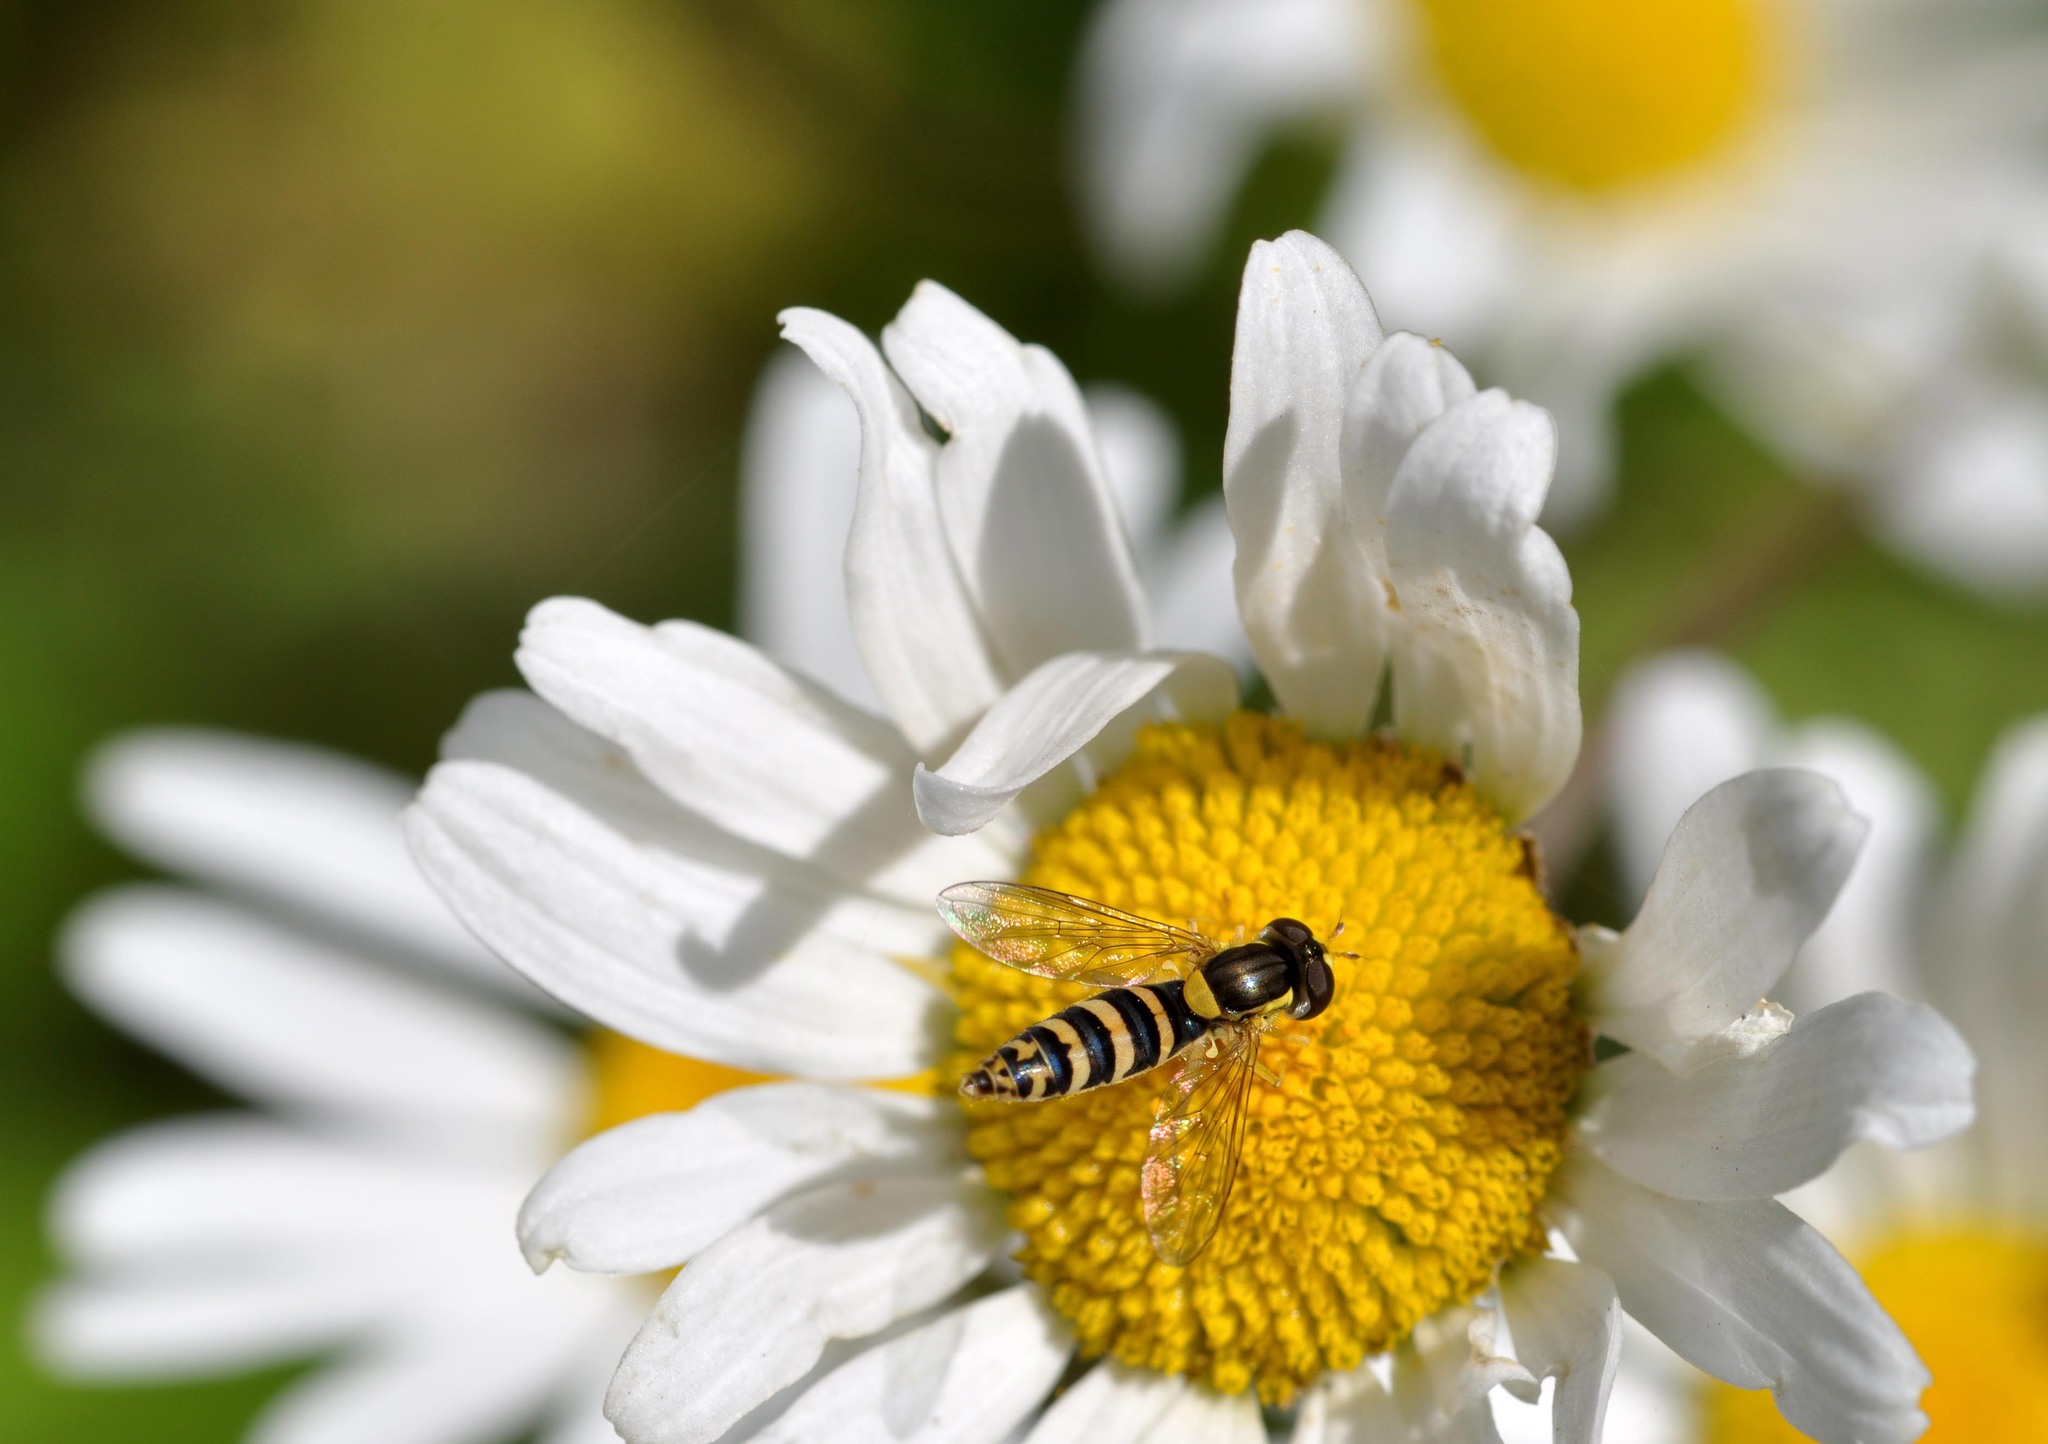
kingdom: Animalia
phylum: Arthropoda
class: Insecta
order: Diptera
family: Syrphidae
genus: Sphaerophoria
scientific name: Sphaerophoria
